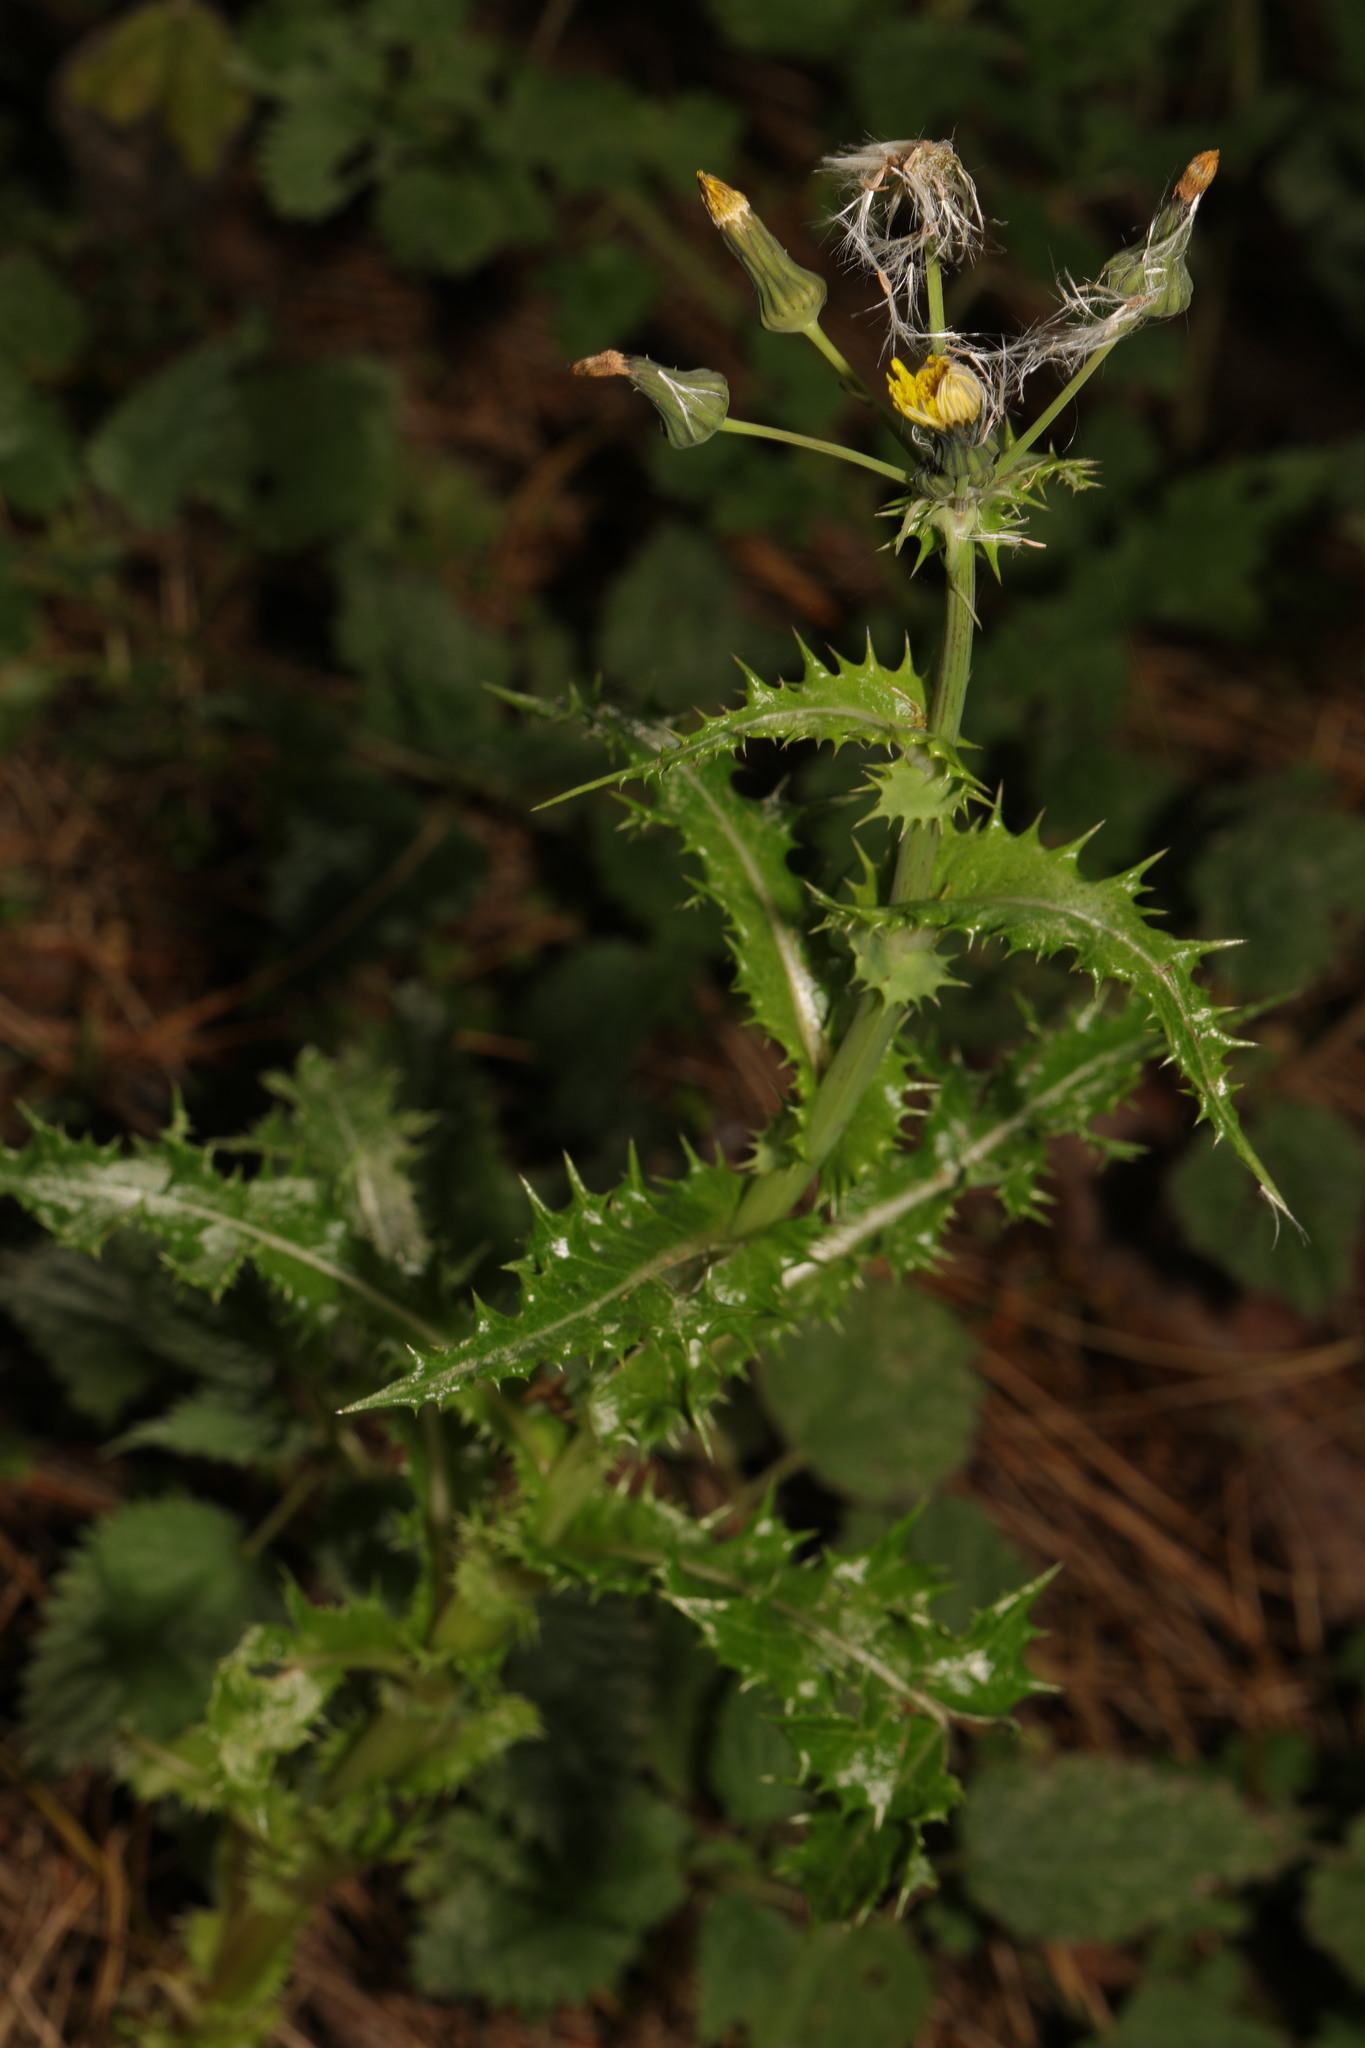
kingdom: Plantae
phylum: Tracheophyta
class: Magnoliopsida
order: Asterales
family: Asteraceae
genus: Sonchus
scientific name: Sonchus asper
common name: Prickly sow-thistle
